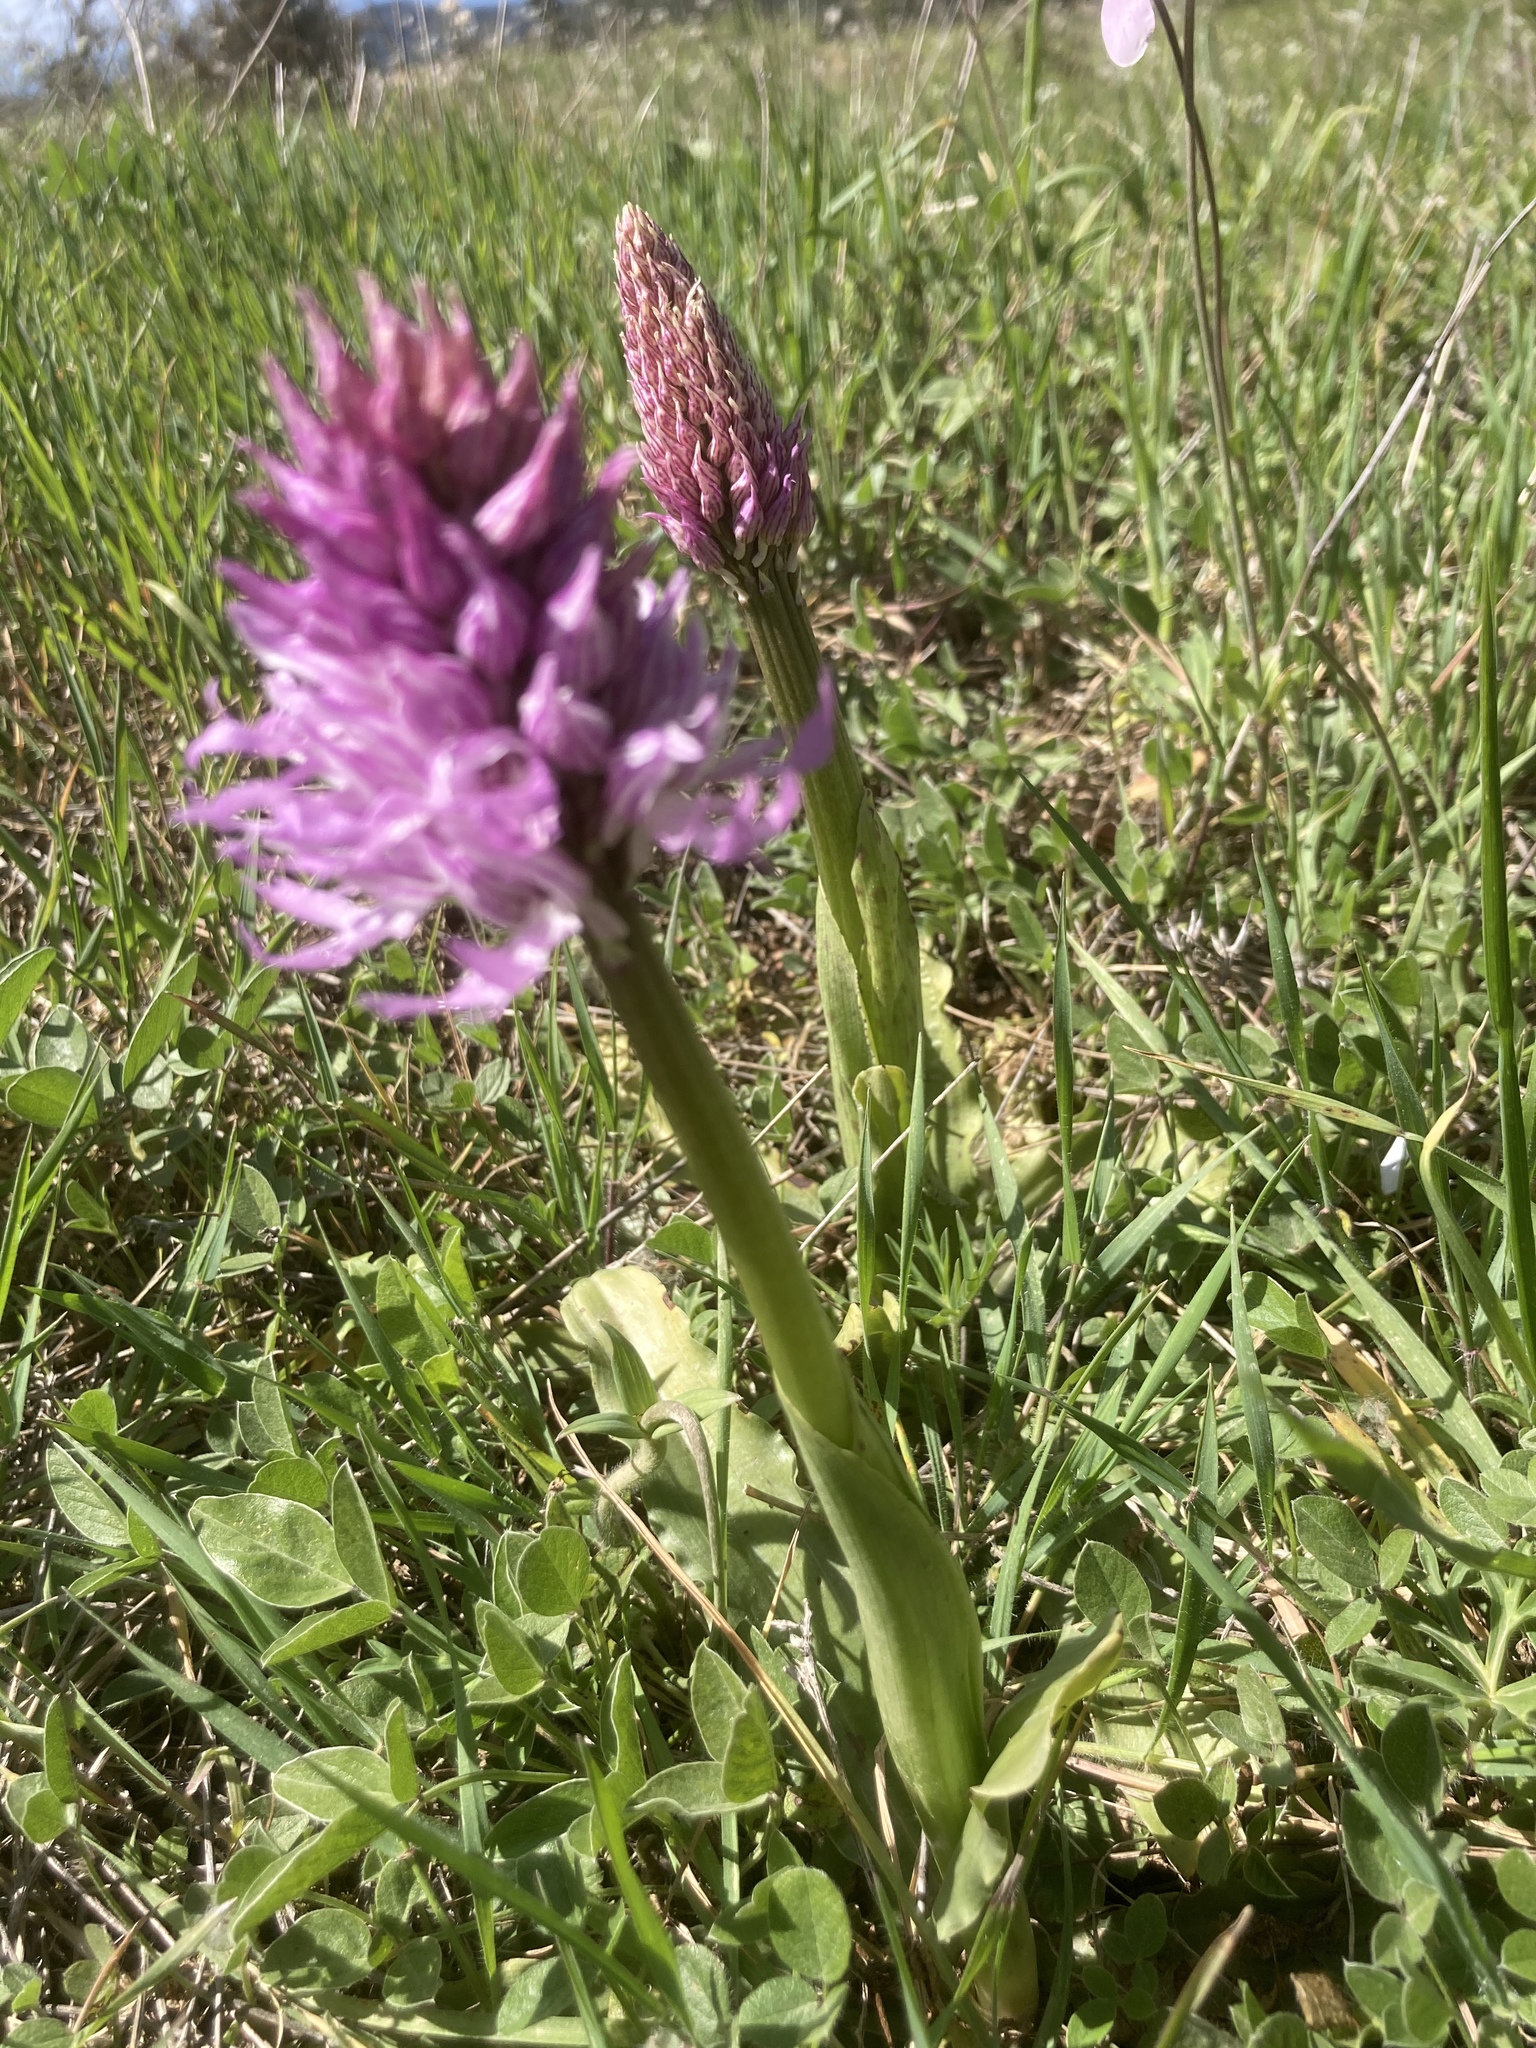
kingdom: Plantae
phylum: Tracheophyta
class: Liliopsida
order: Asparagales
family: Orchidaceae
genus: Orchis
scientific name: Orchis italica
